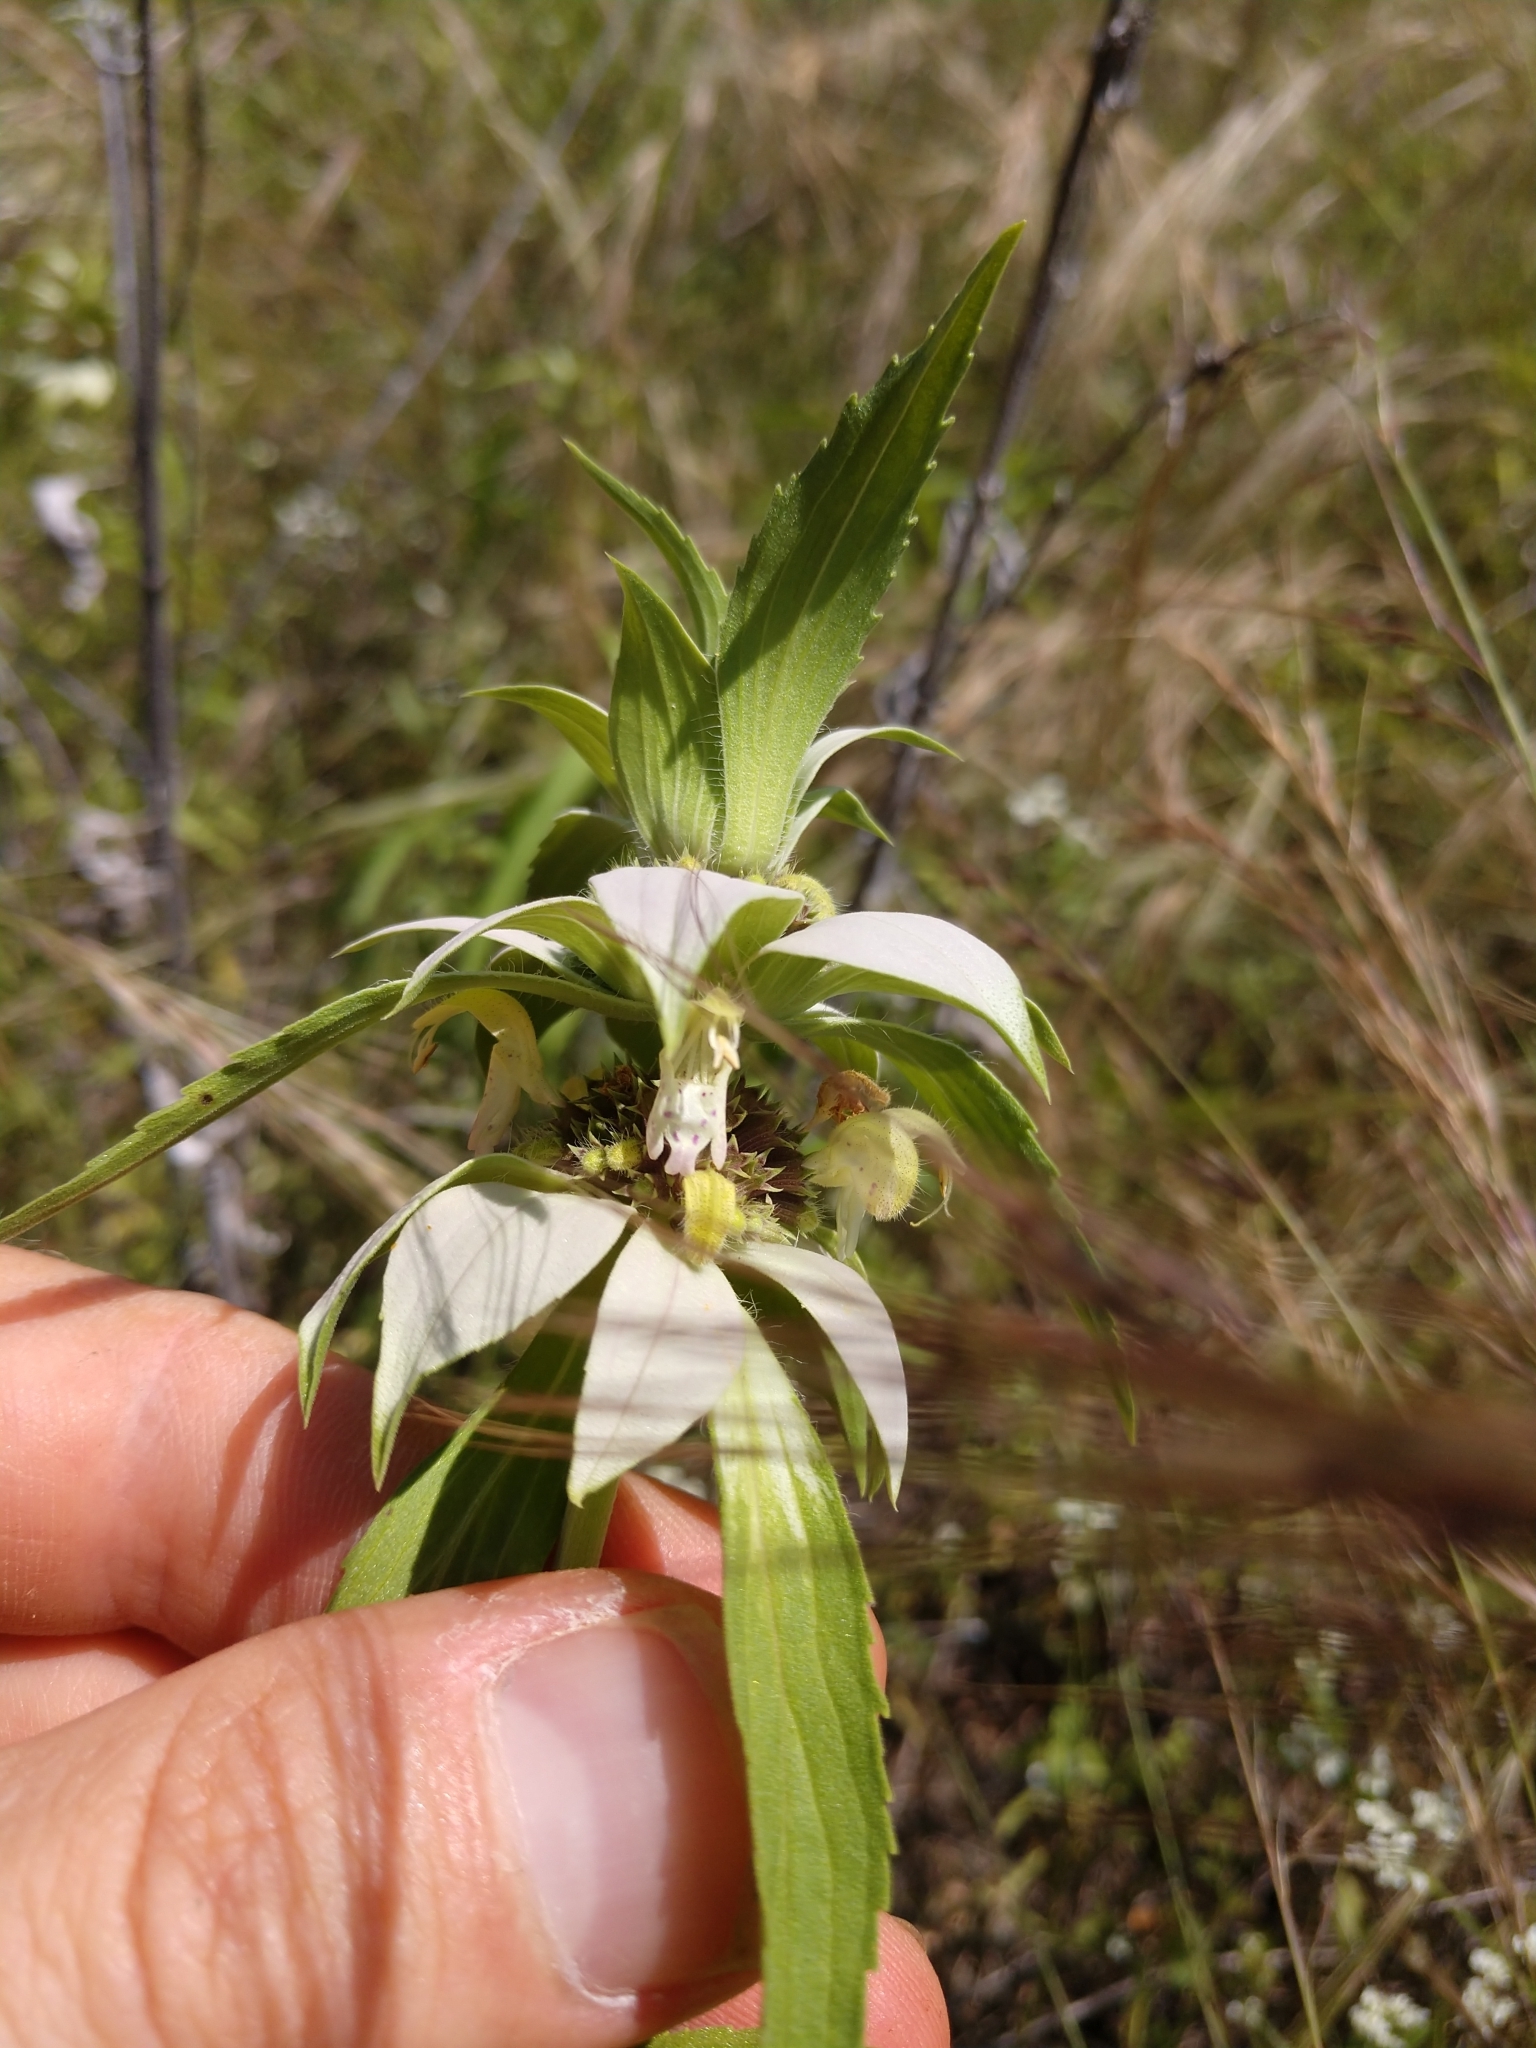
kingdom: Plantae
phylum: Tracheophyta
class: Magnoliopsida
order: Lamiales
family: Lamiaceae
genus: Monarda
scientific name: Monarda punctata
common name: Dotted monarda
